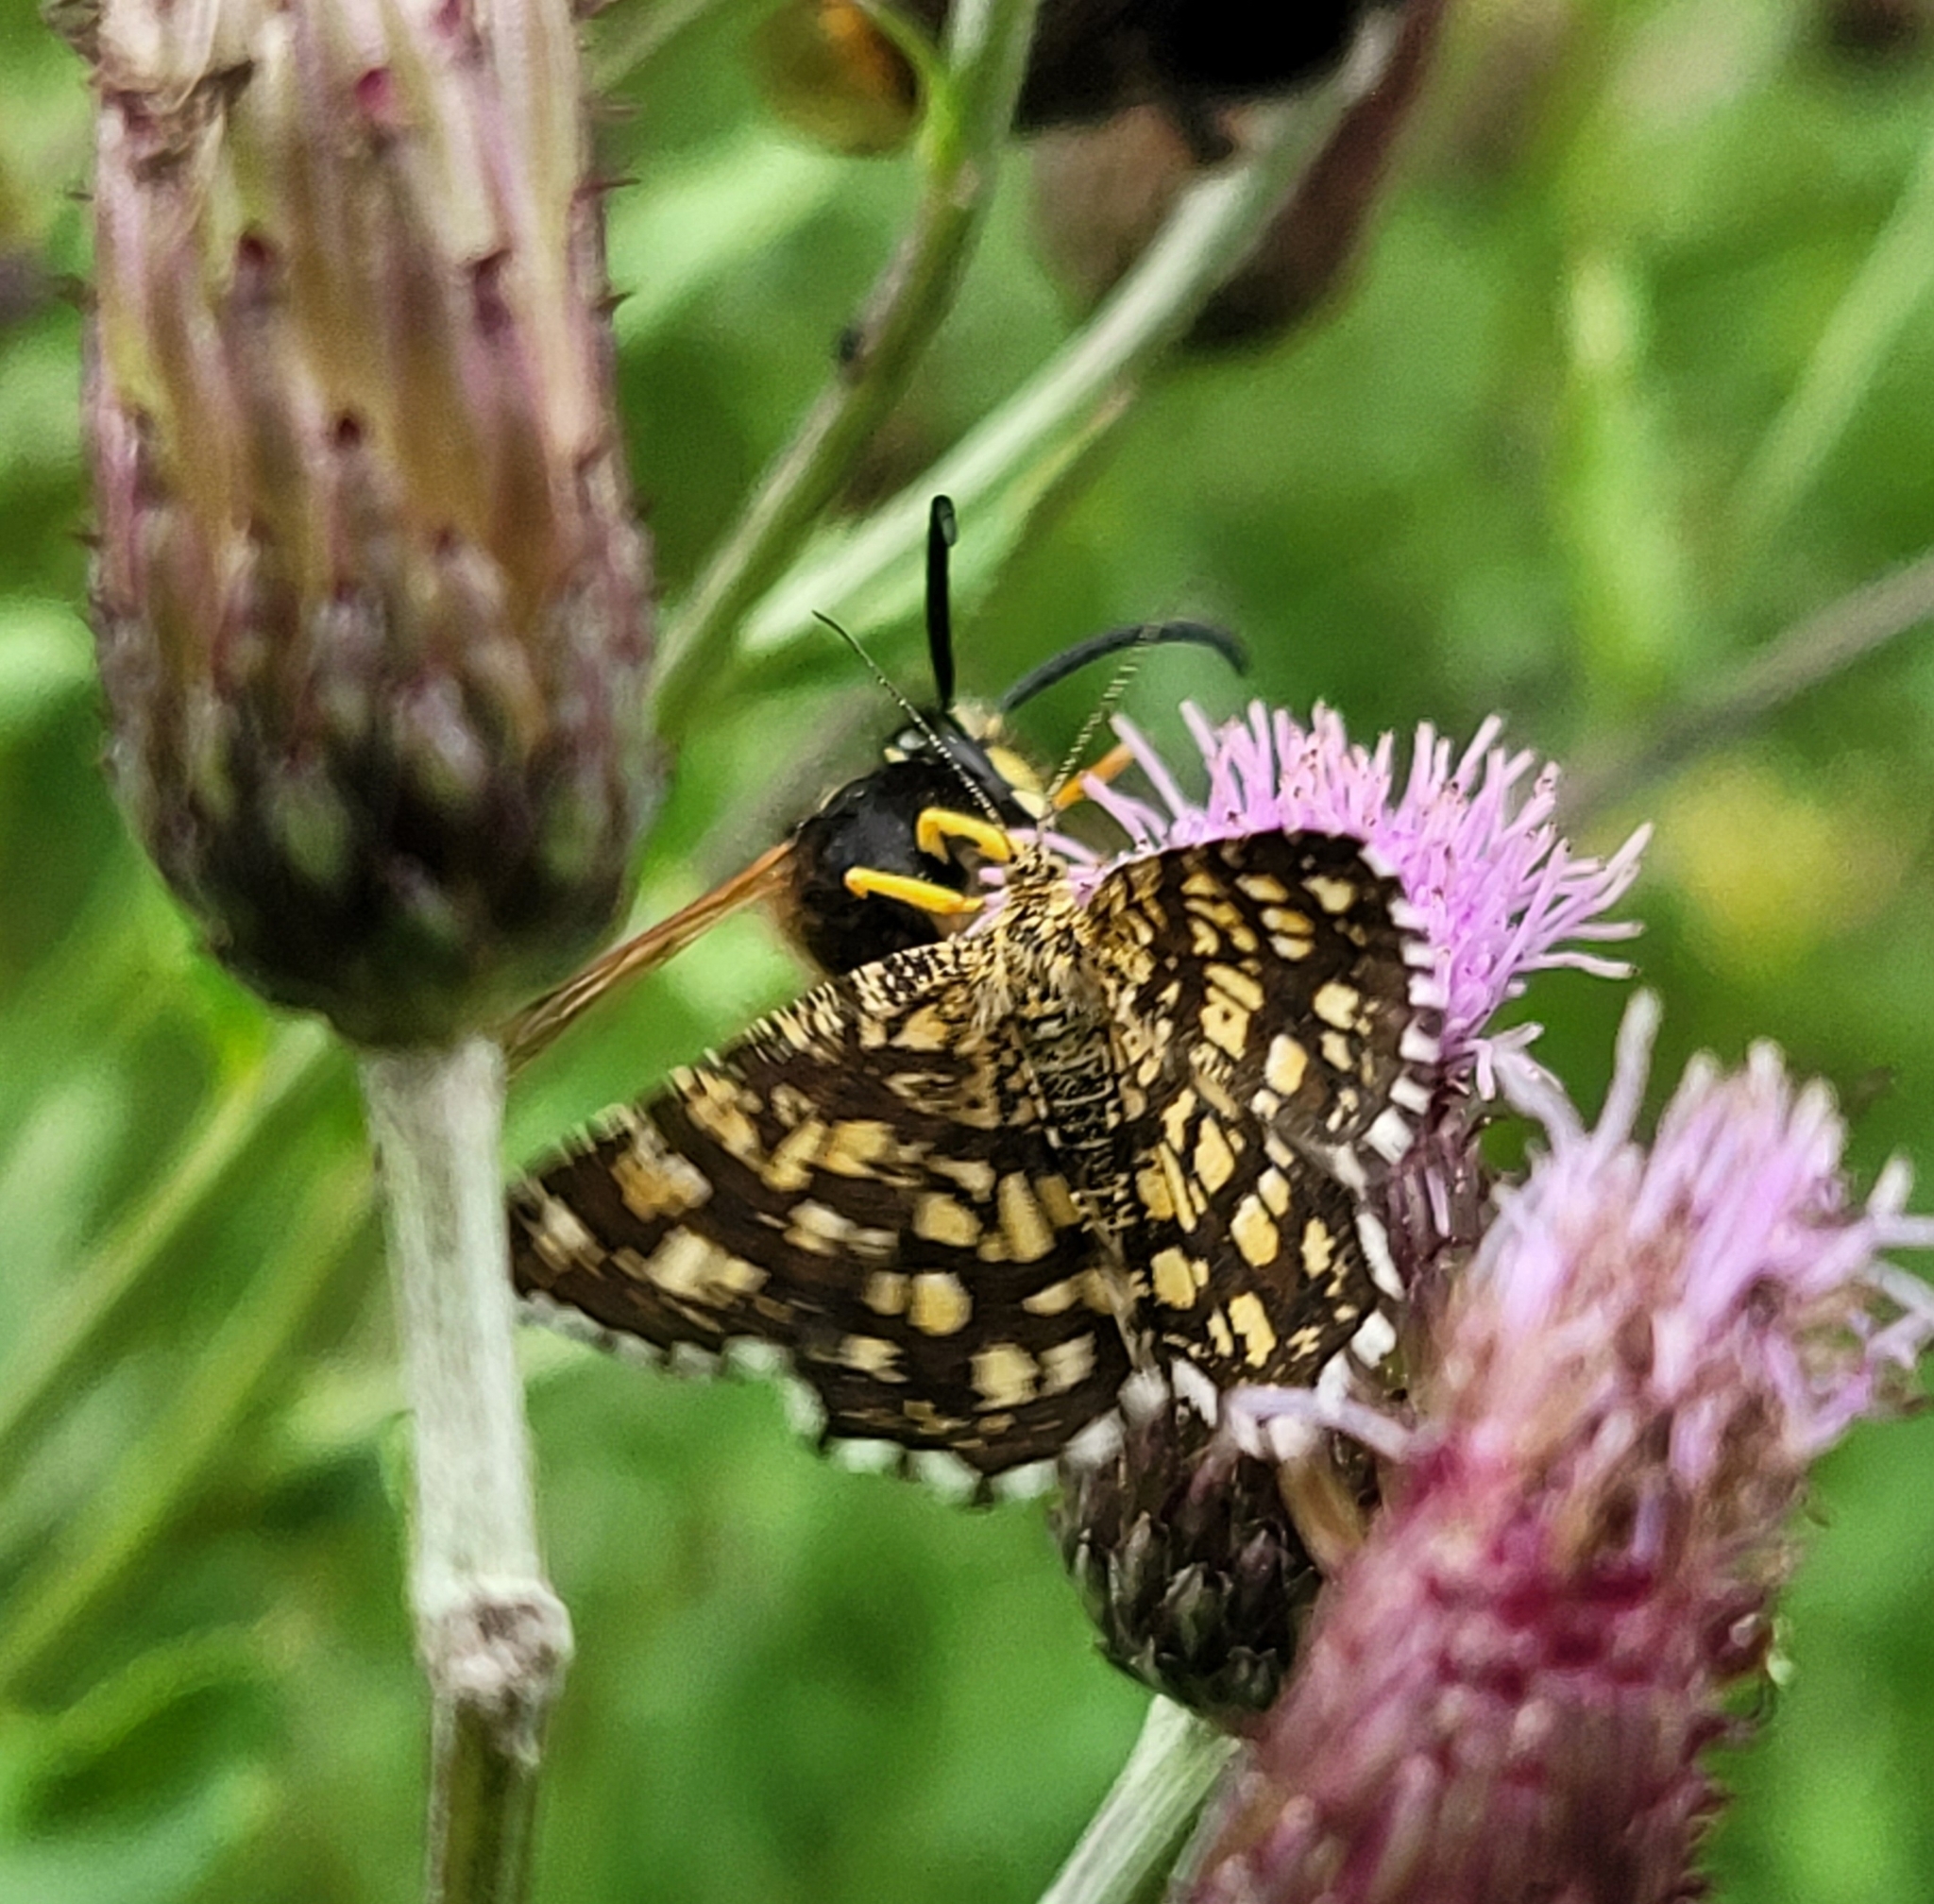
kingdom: Animalia
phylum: Arthropoda
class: Insecta
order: Lepidoptera
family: Geometridae
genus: Chiasmia
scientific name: Chiasmia clathrata
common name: Latticed heath
